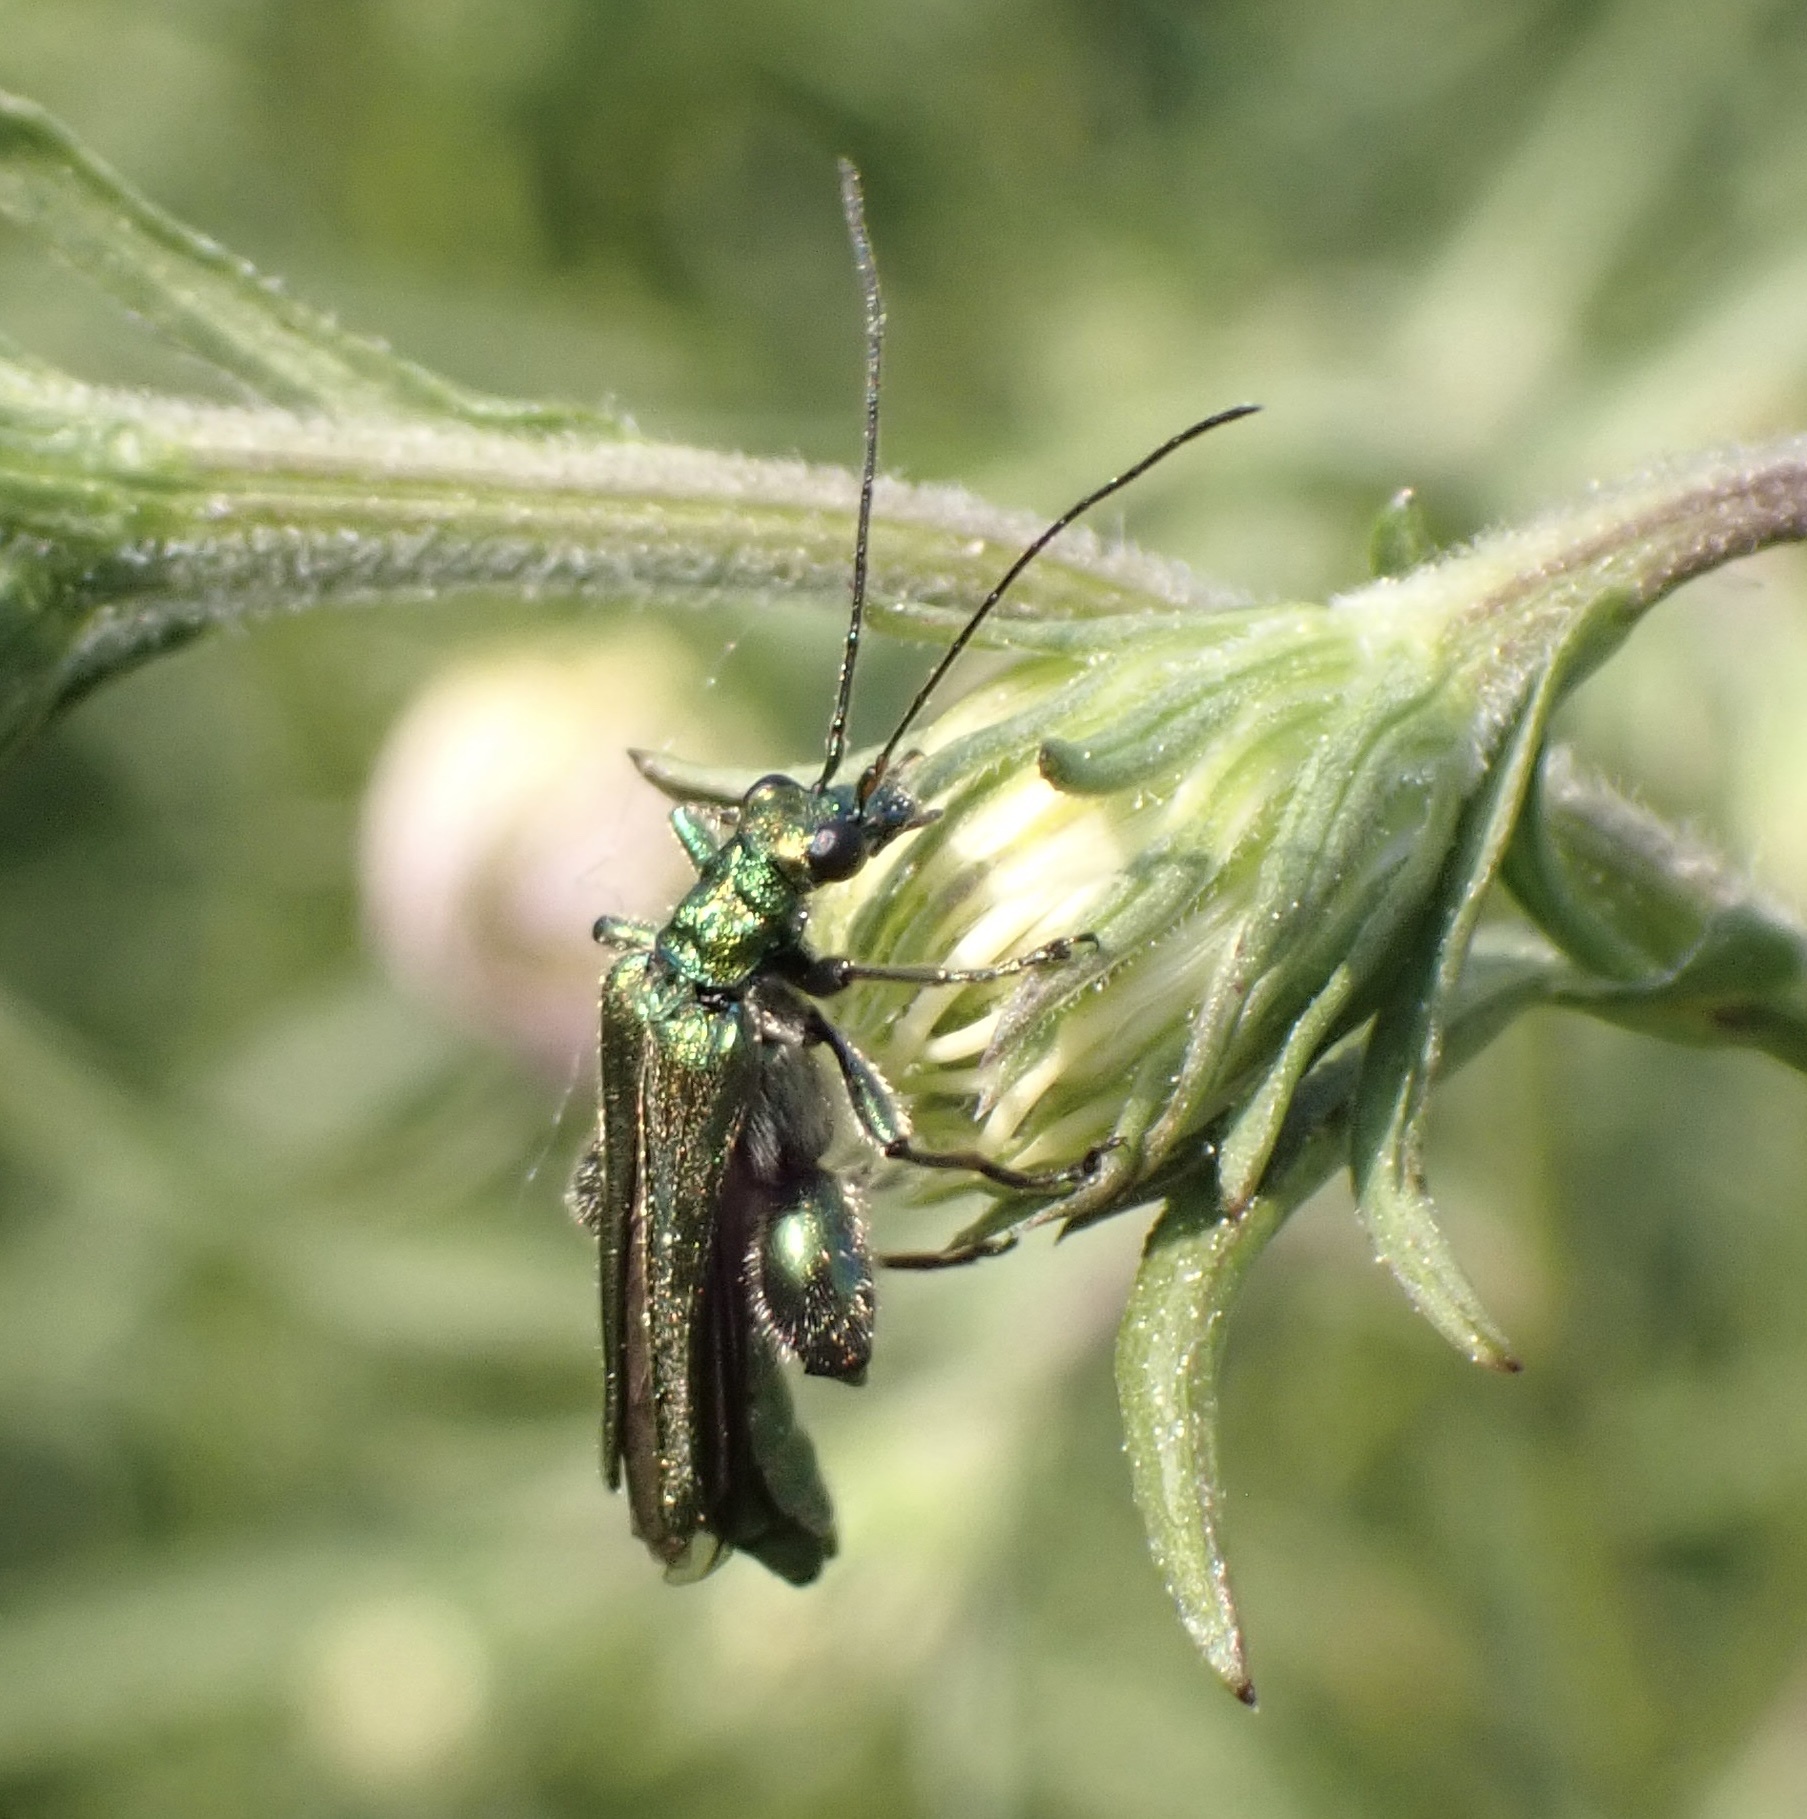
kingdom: Animalia
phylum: Arthropoda
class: Insecta
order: Coleoptera
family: Oedemeridae
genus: Oedemera
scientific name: Oedemera nobilis
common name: Swollen-thighed beetle
